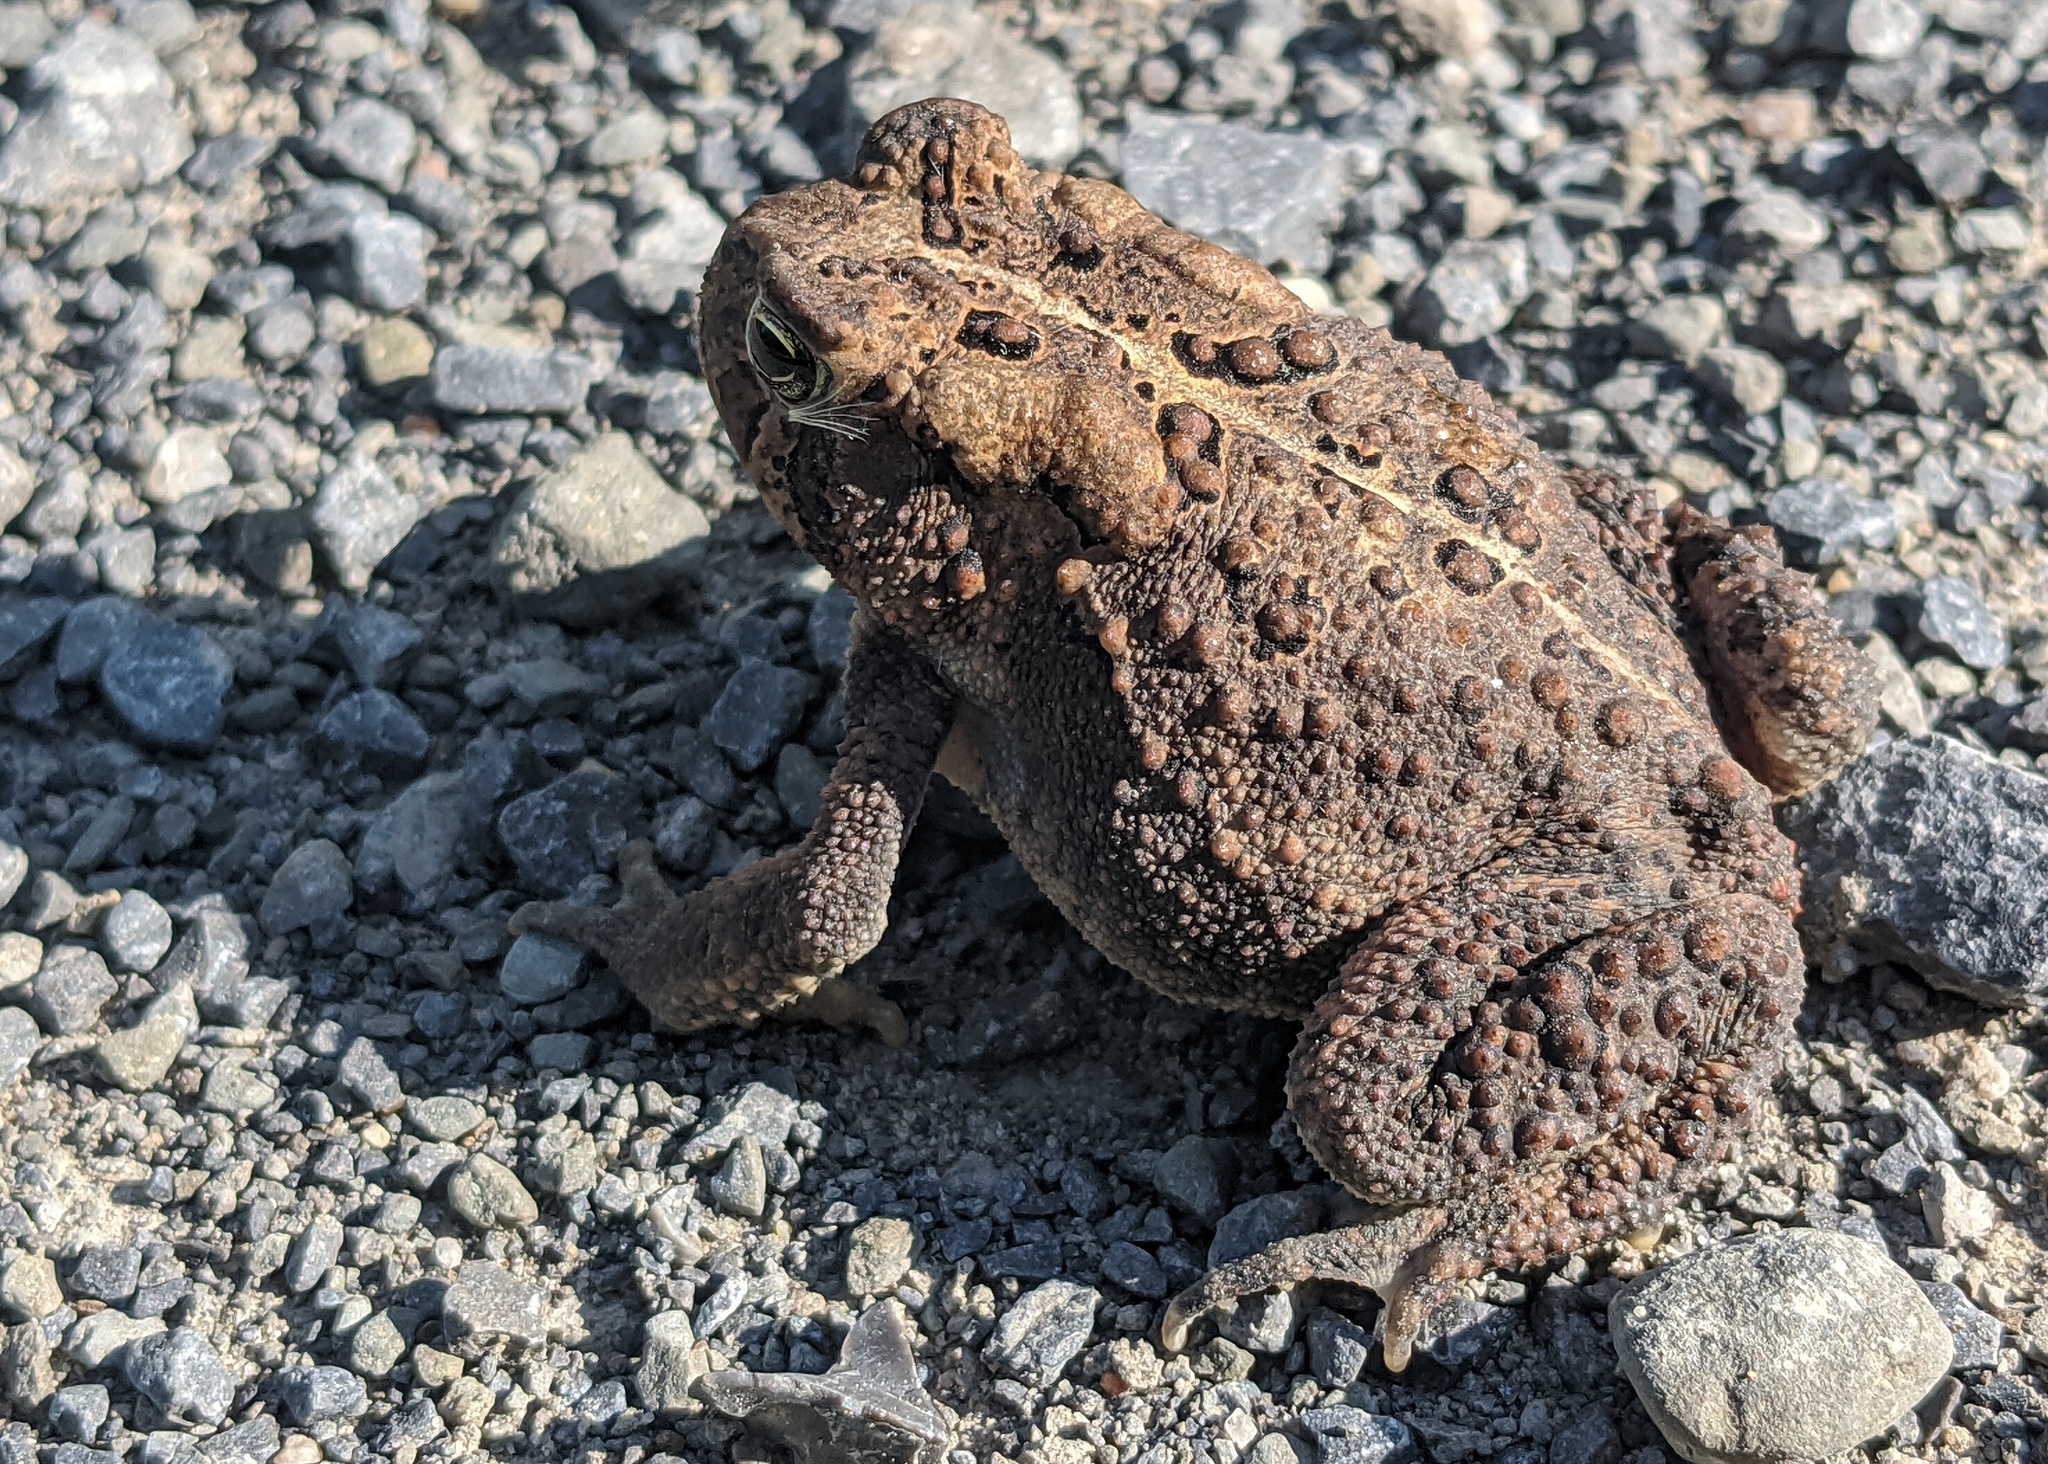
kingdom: Animalia
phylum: Chordata
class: Amphibia
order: Anura
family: Bufonidae
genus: Anaxyrus
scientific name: Anaxyrus americanus
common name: American toad
